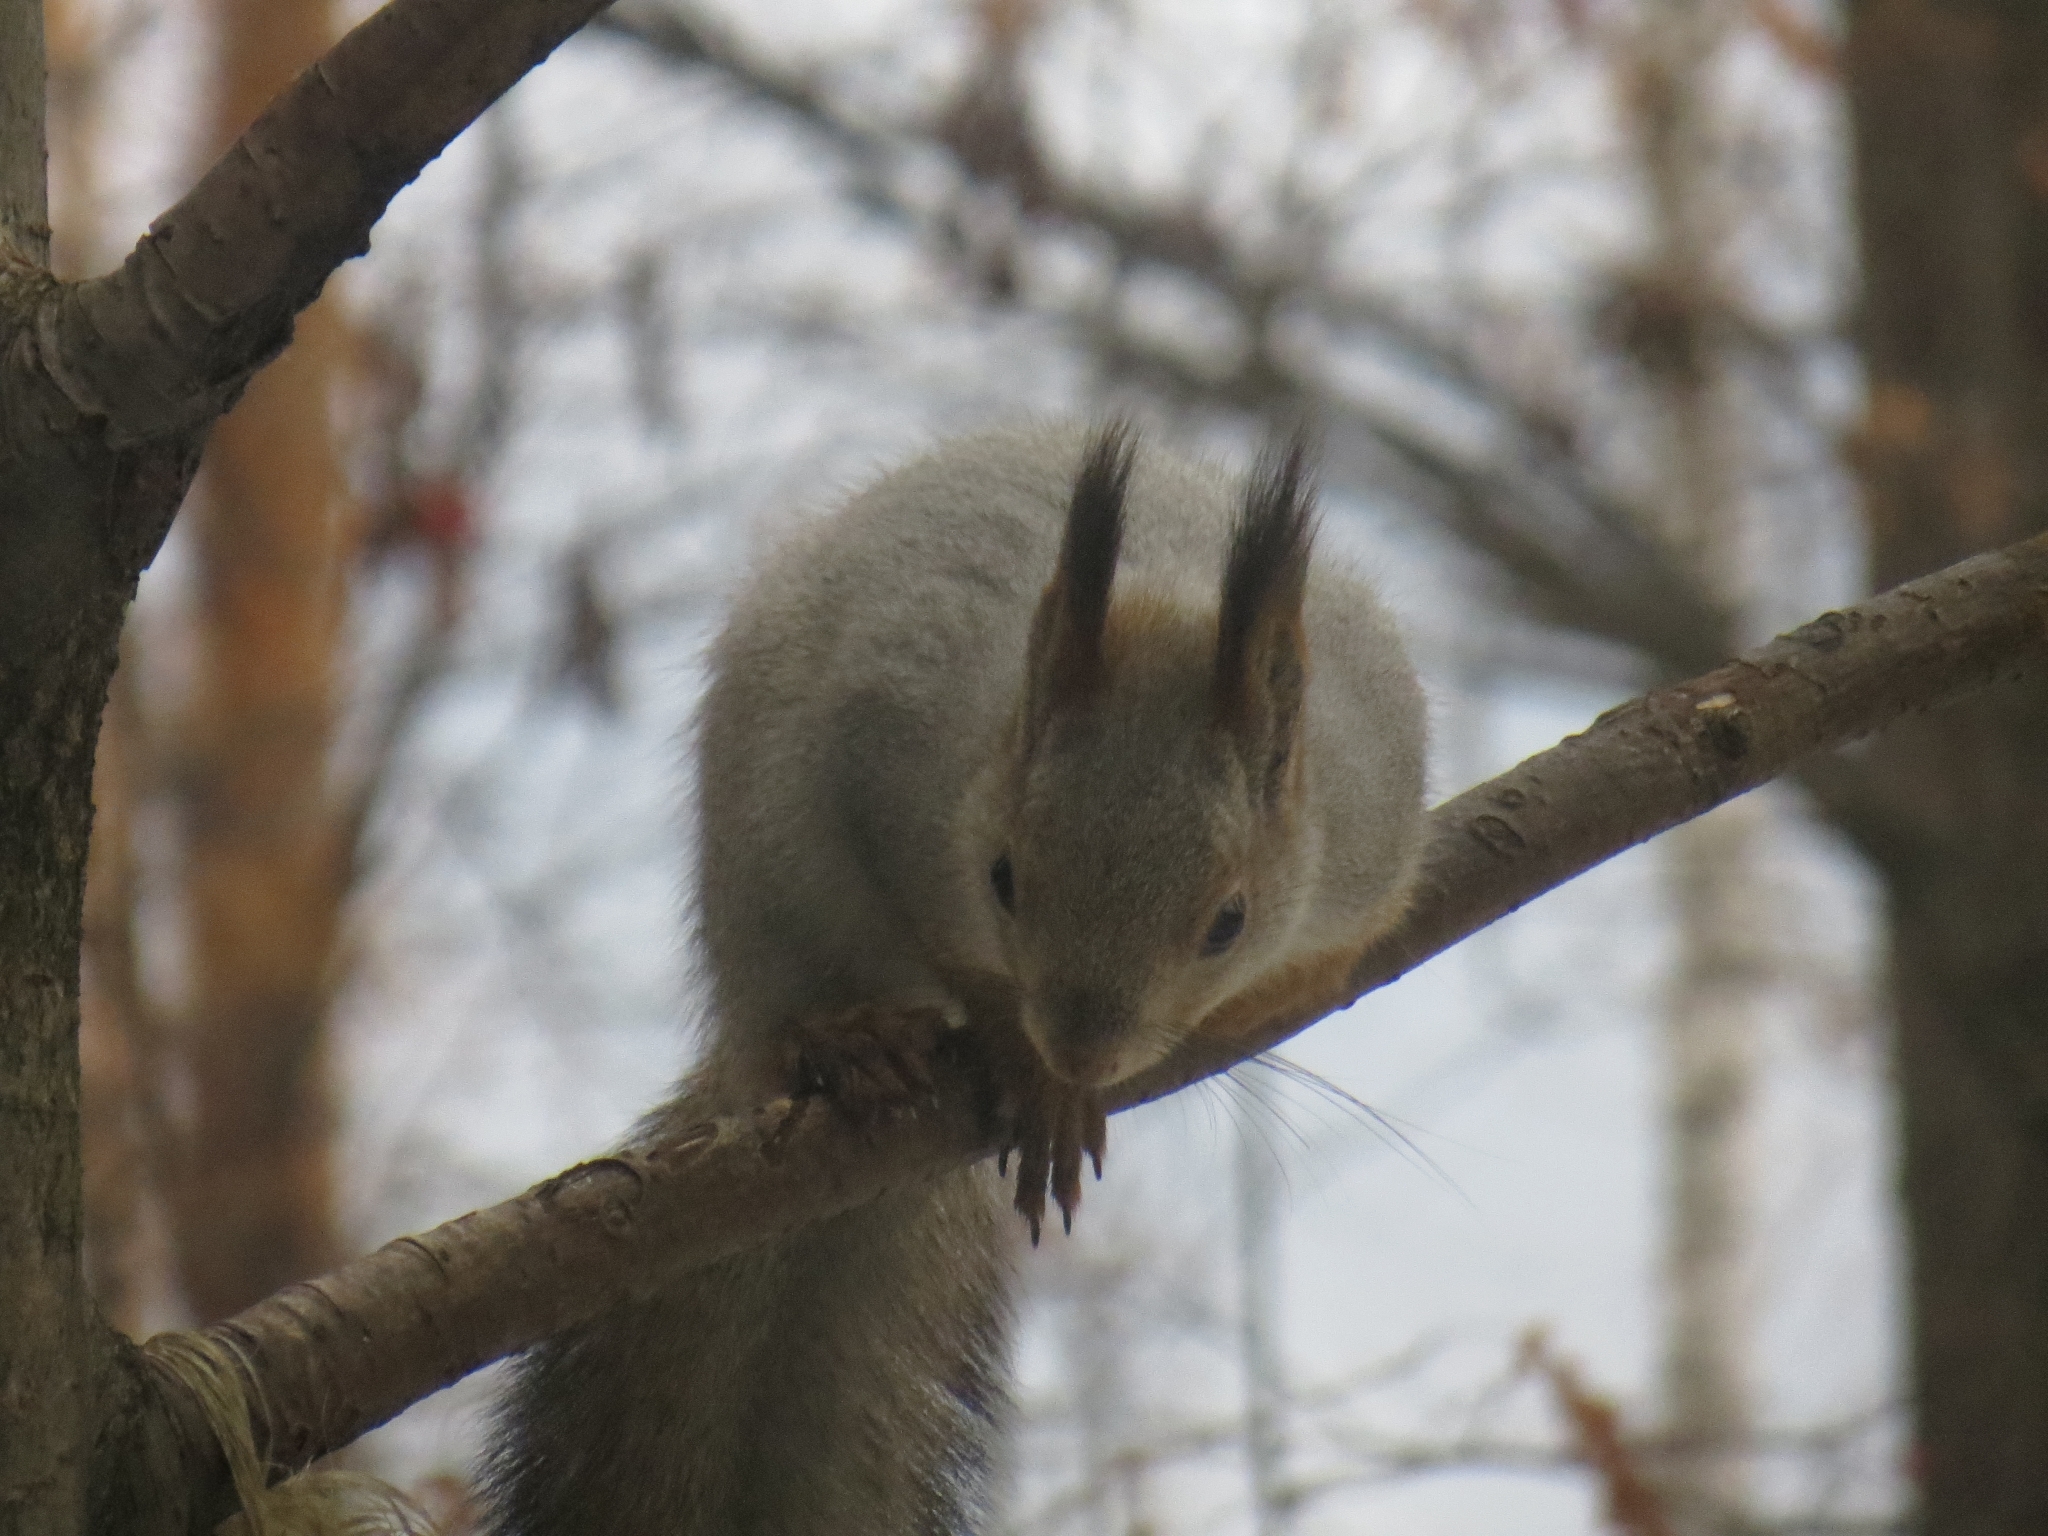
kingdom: Animalia
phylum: Chordata
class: Mammalia
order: Rodentia
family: Sciuridae
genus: Sciurus
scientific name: Sciurus vulgaris
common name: Eurasian red squirrel
